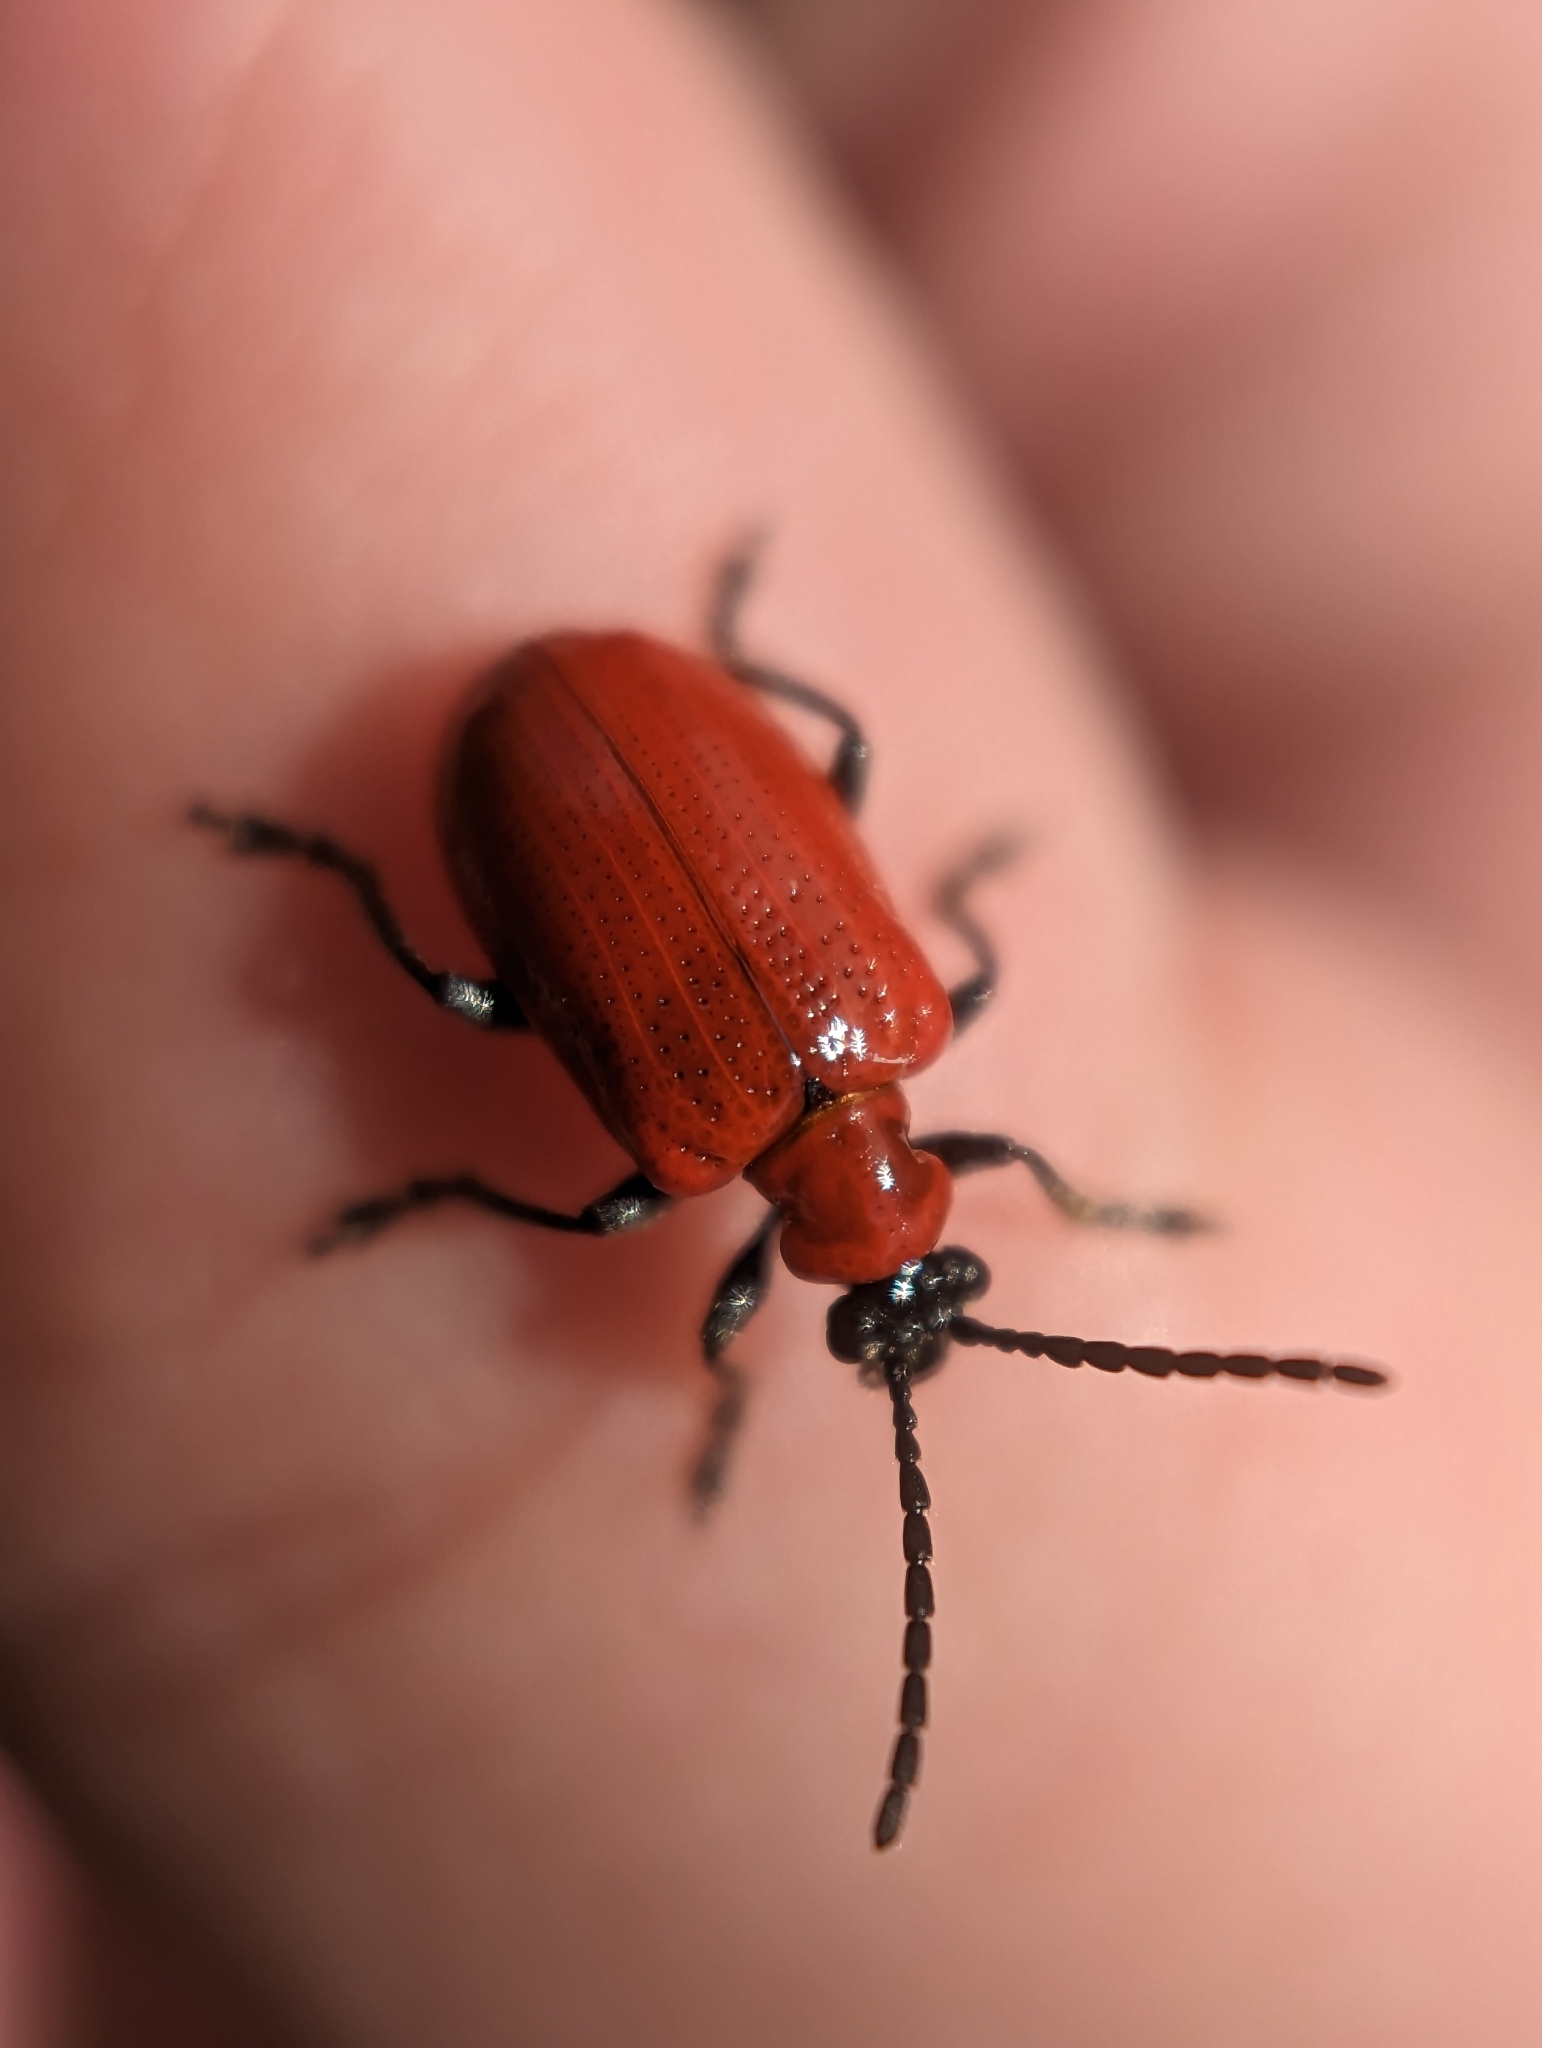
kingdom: Animalia
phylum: Arthropoda
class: Insecta
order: Coleoptera
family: Chrysomelidae
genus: Lilioceris
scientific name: Lilioceris lilii
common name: Lily beetle
